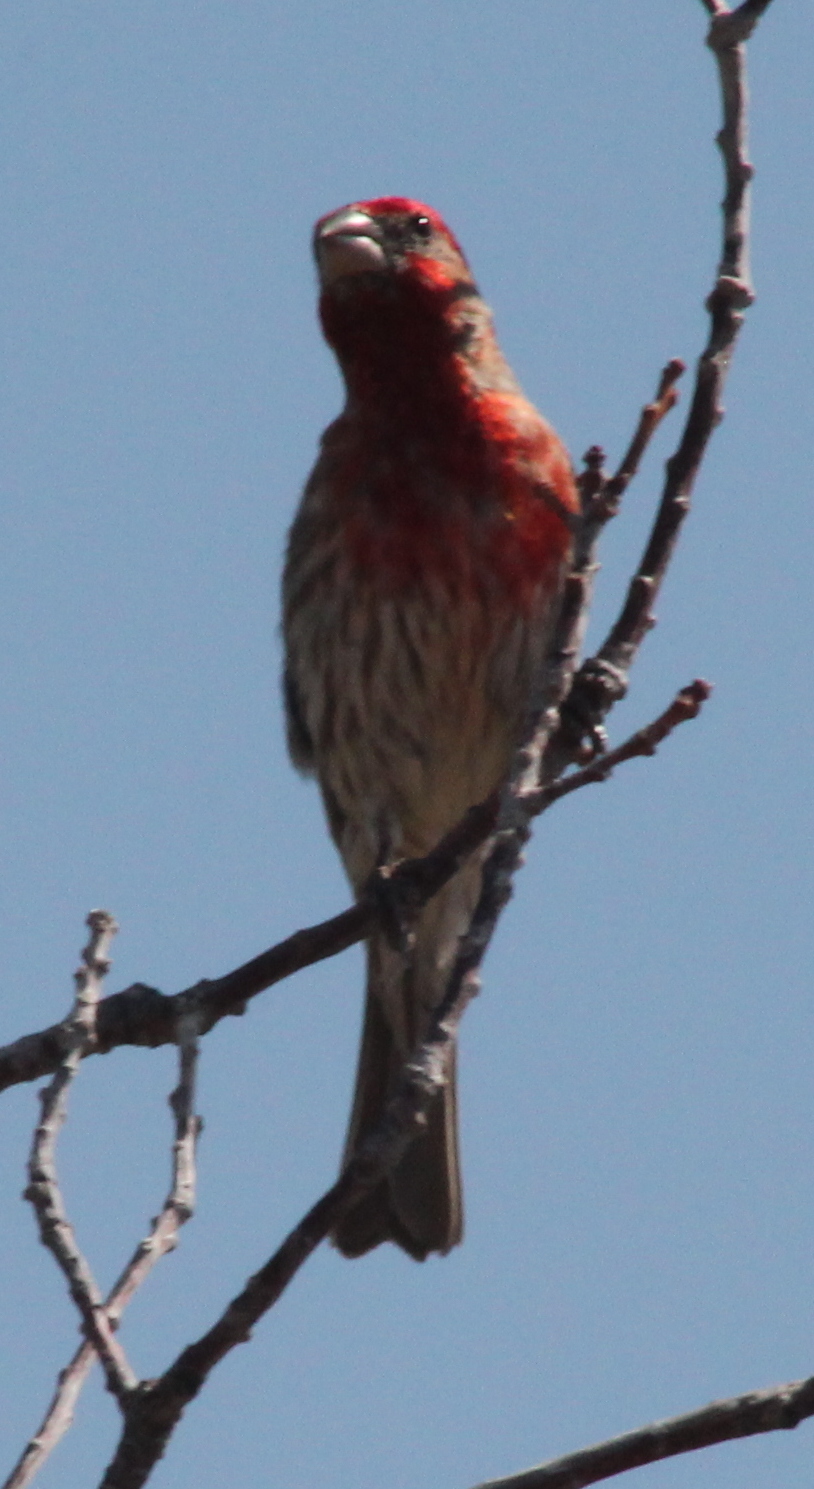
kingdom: Animalia
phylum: Chordata
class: Aves
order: Passeriformes
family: Fringillidae
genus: Haemorhous
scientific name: Haemorhous mexicanus
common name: House finch
